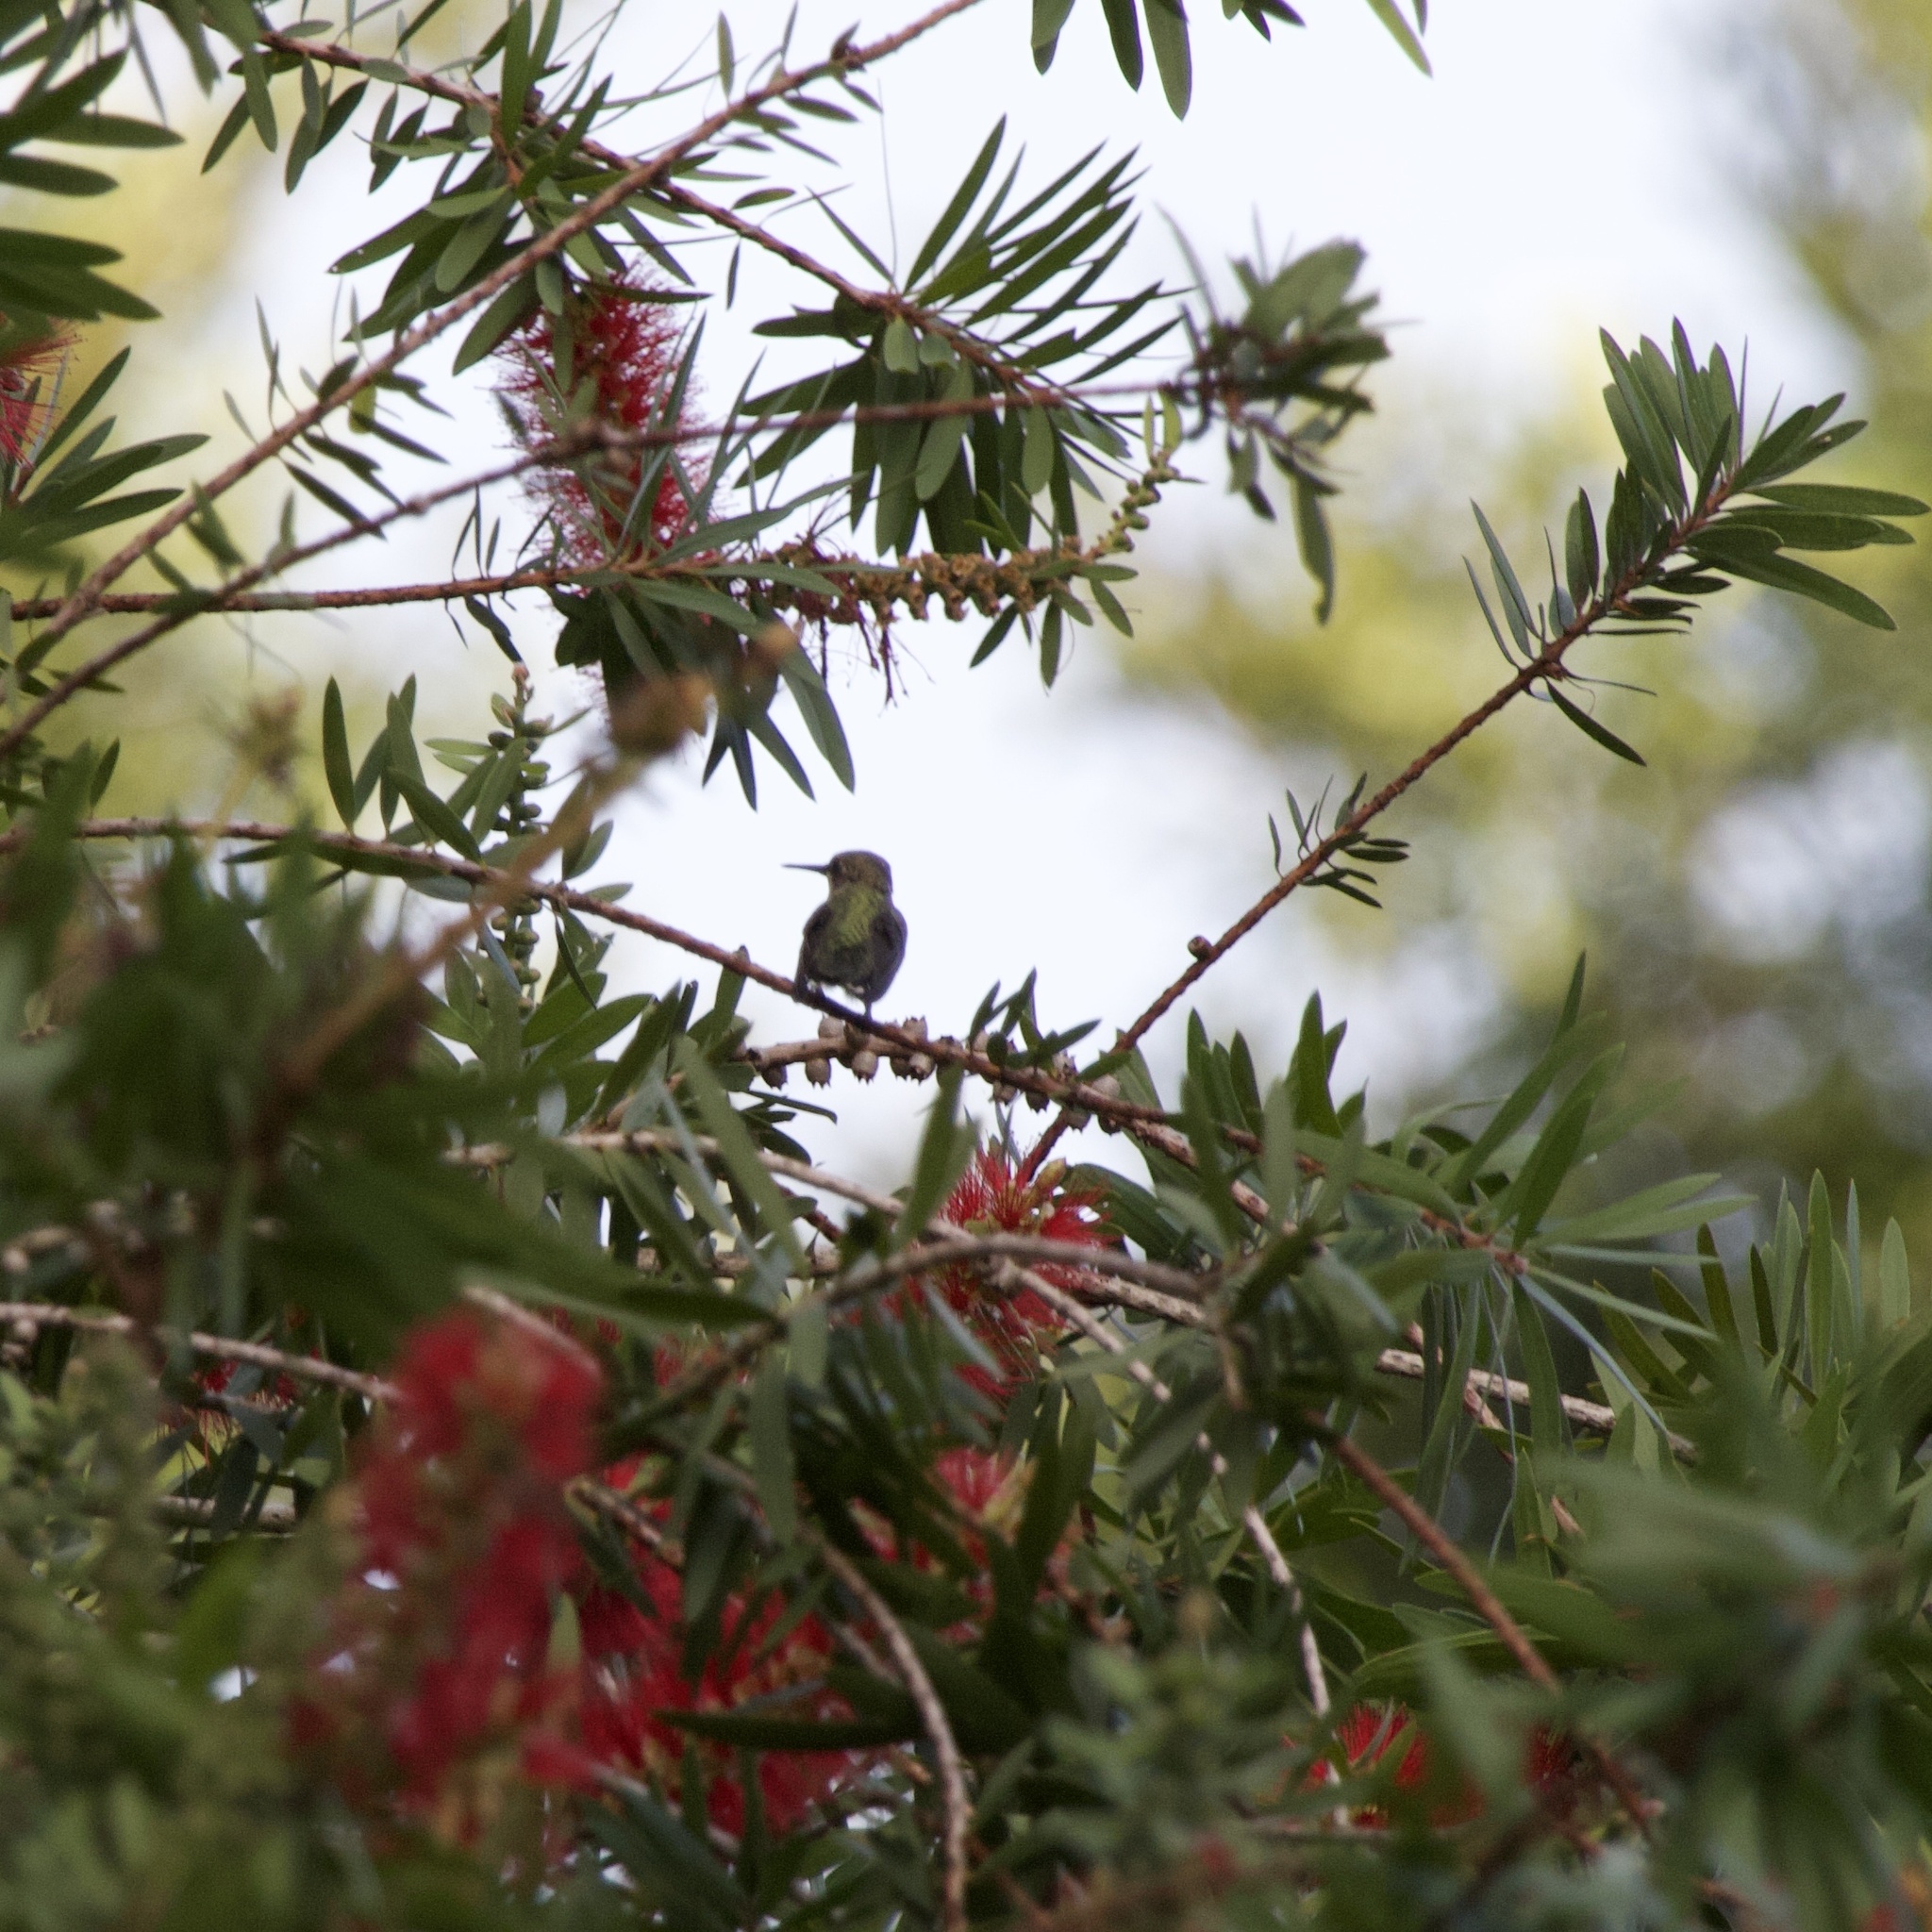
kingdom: Animalia
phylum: Chordata
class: Aves
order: Apodiformes
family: Trochilidae
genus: Archilochus
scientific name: Archilochus colubris
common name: Ruby-throated hummingbird
